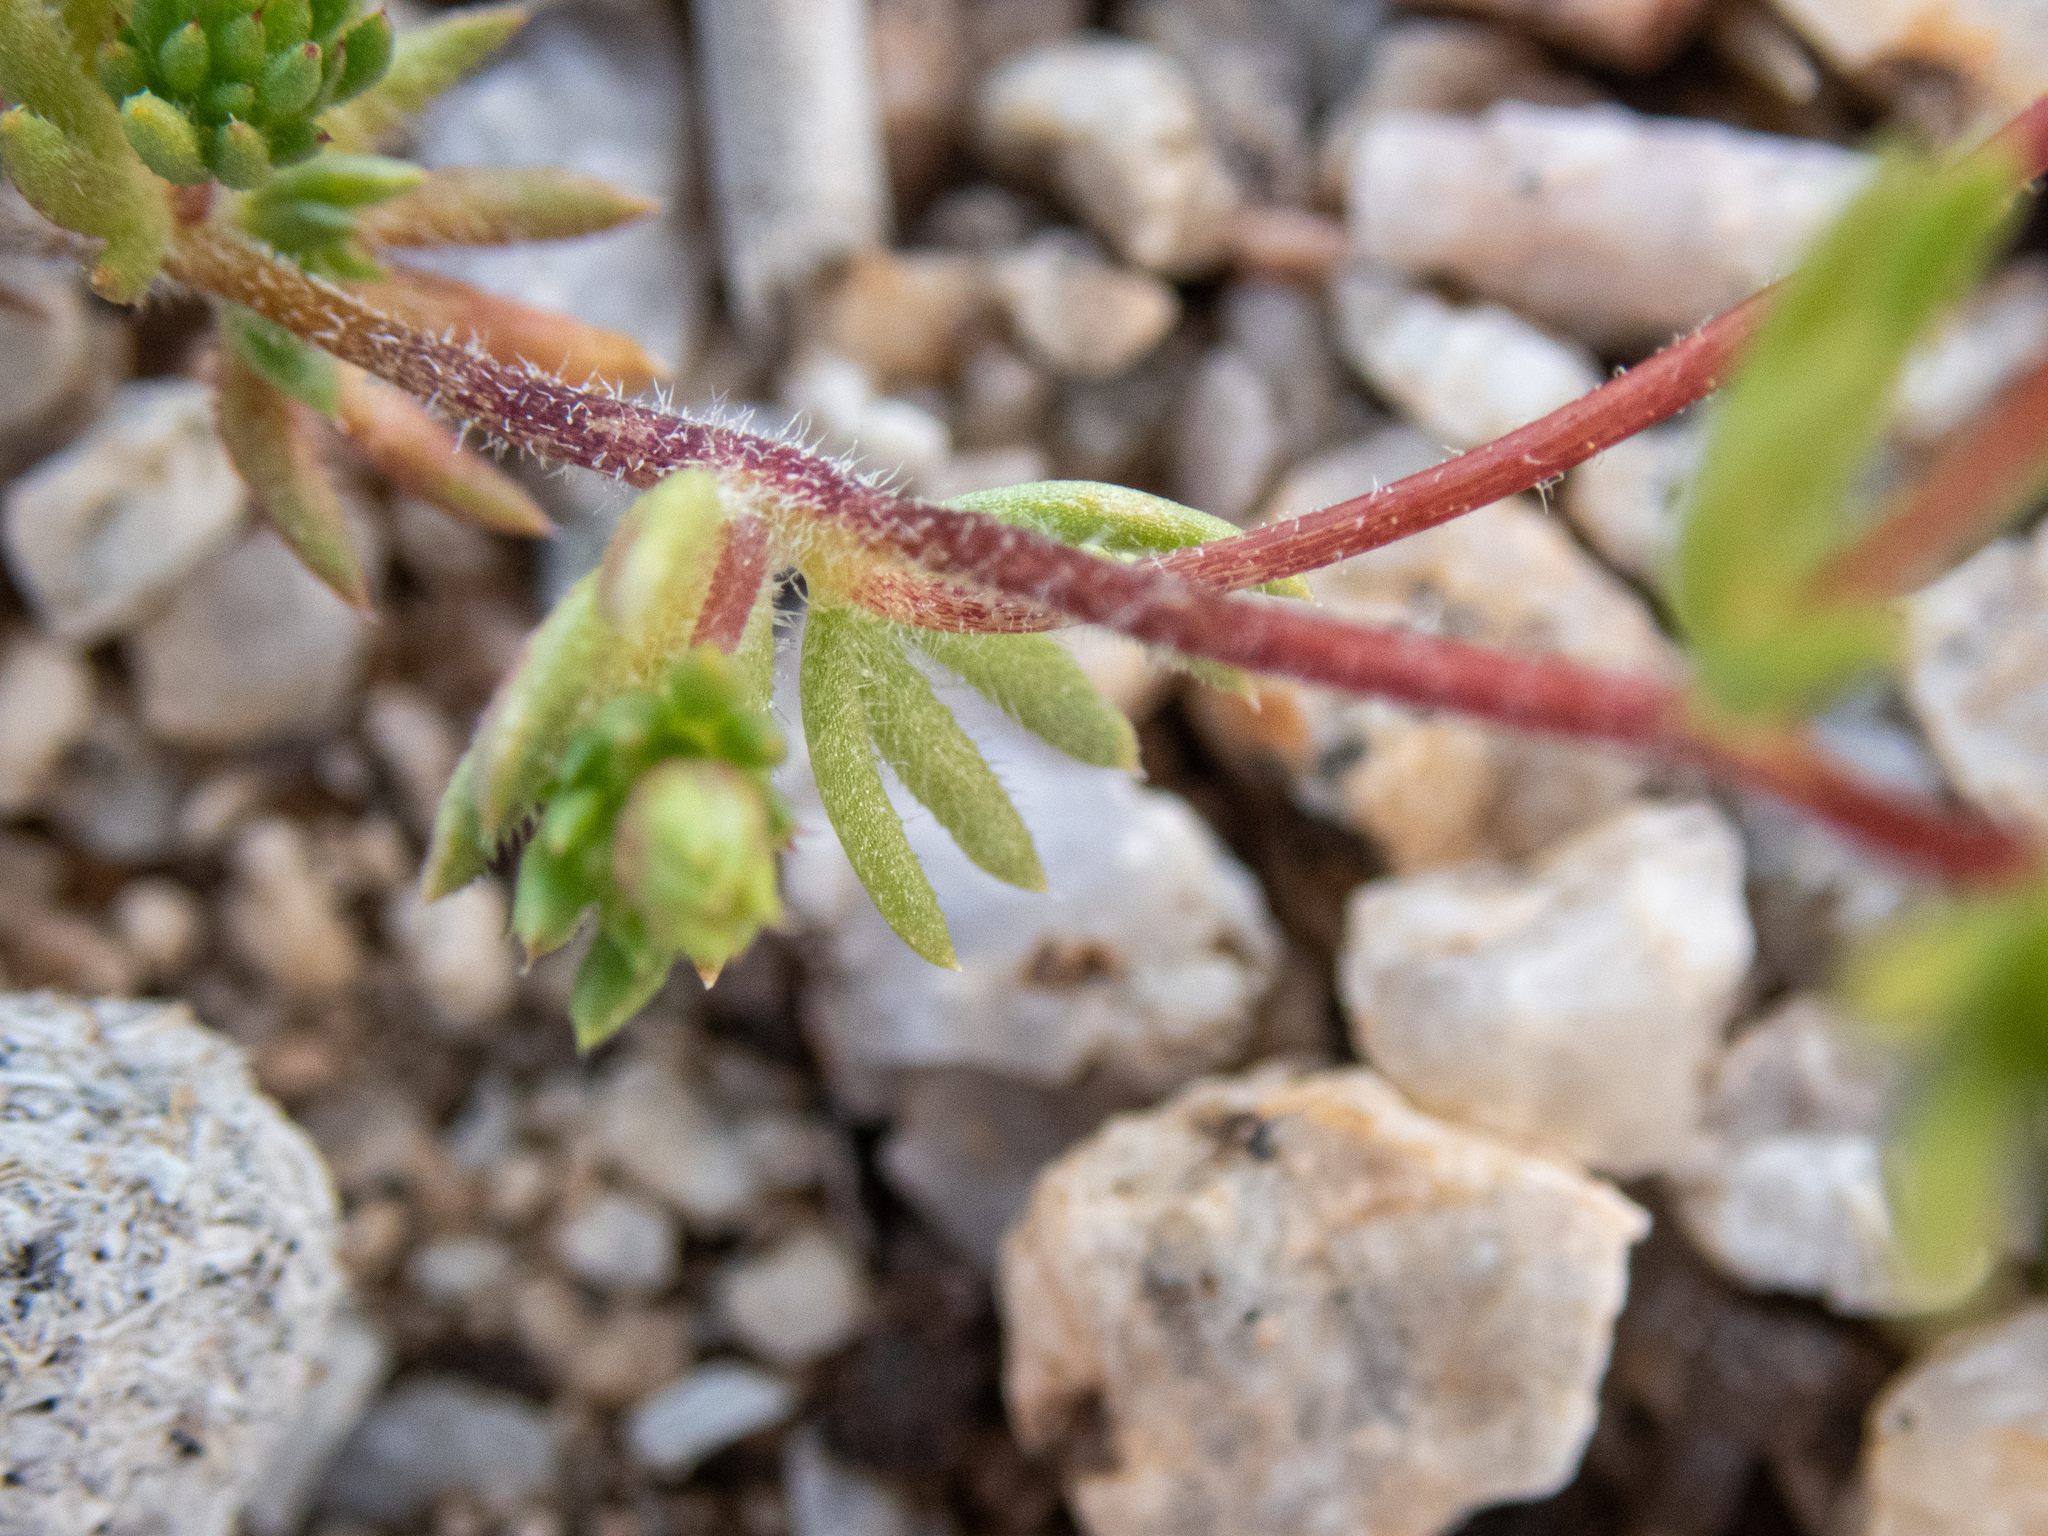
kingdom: Plantae
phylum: Tracheophyta
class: Magnoliopsida
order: Ericales
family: Polemoniaceae
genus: Leptosiphon
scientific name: Leptosiphon chrysanthus
